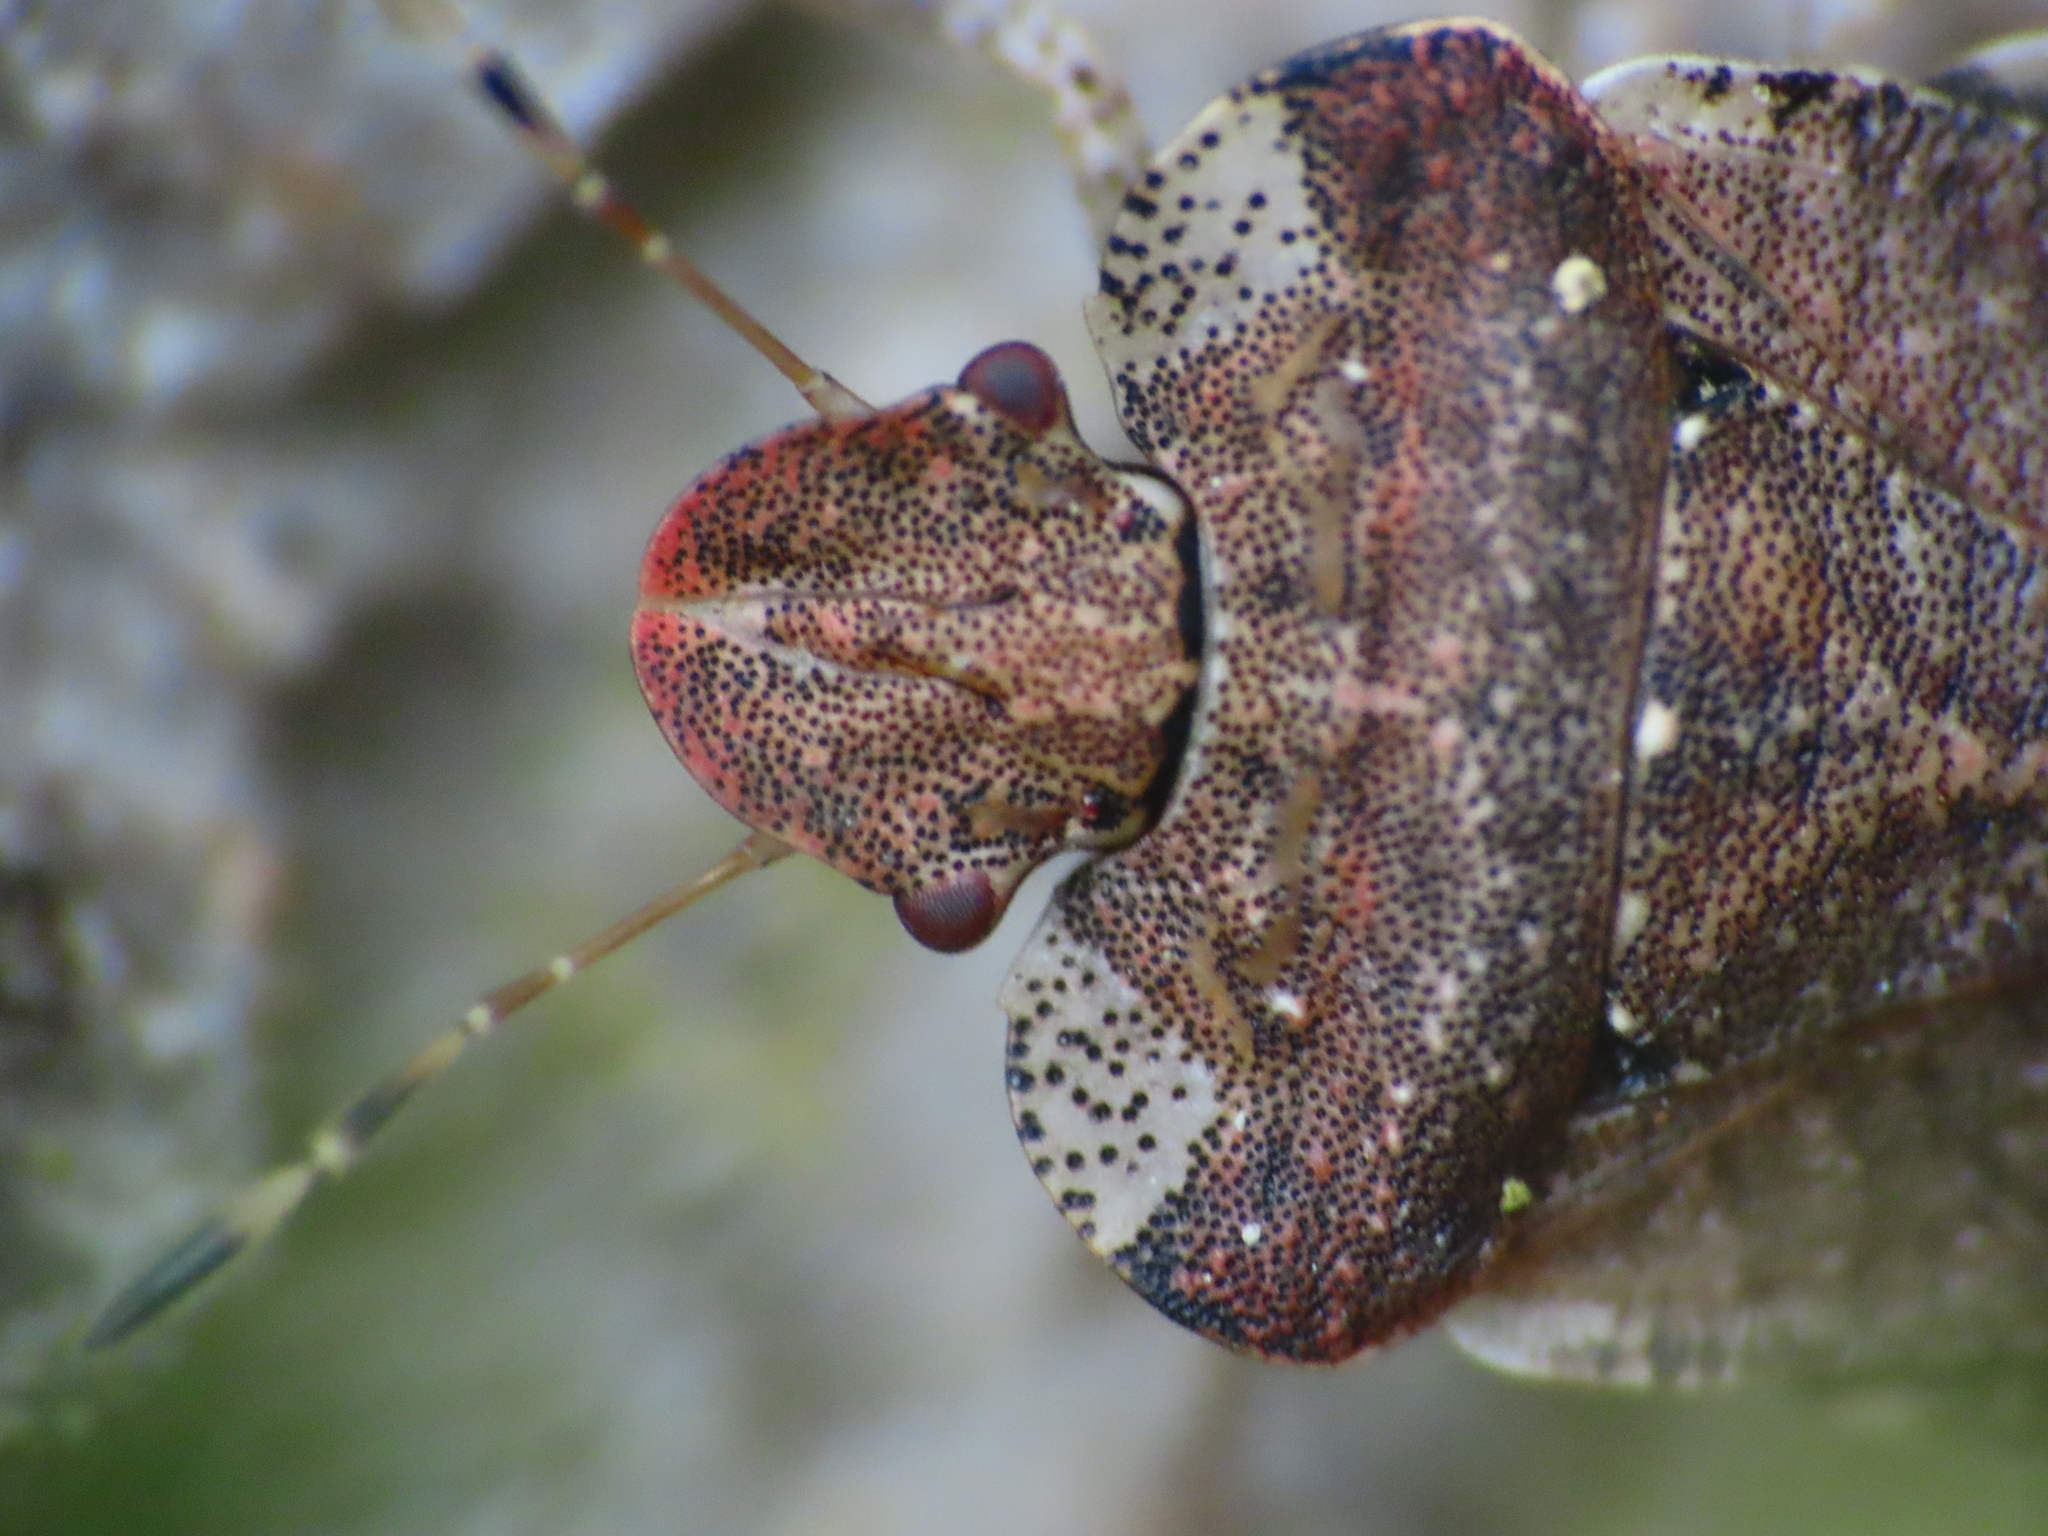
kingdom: Animalia
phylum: Arthropoda
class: Insecta
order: Hemiptera
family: Pentatomidae
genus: Dyroderes
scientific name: Dyroderes umbraculatus
